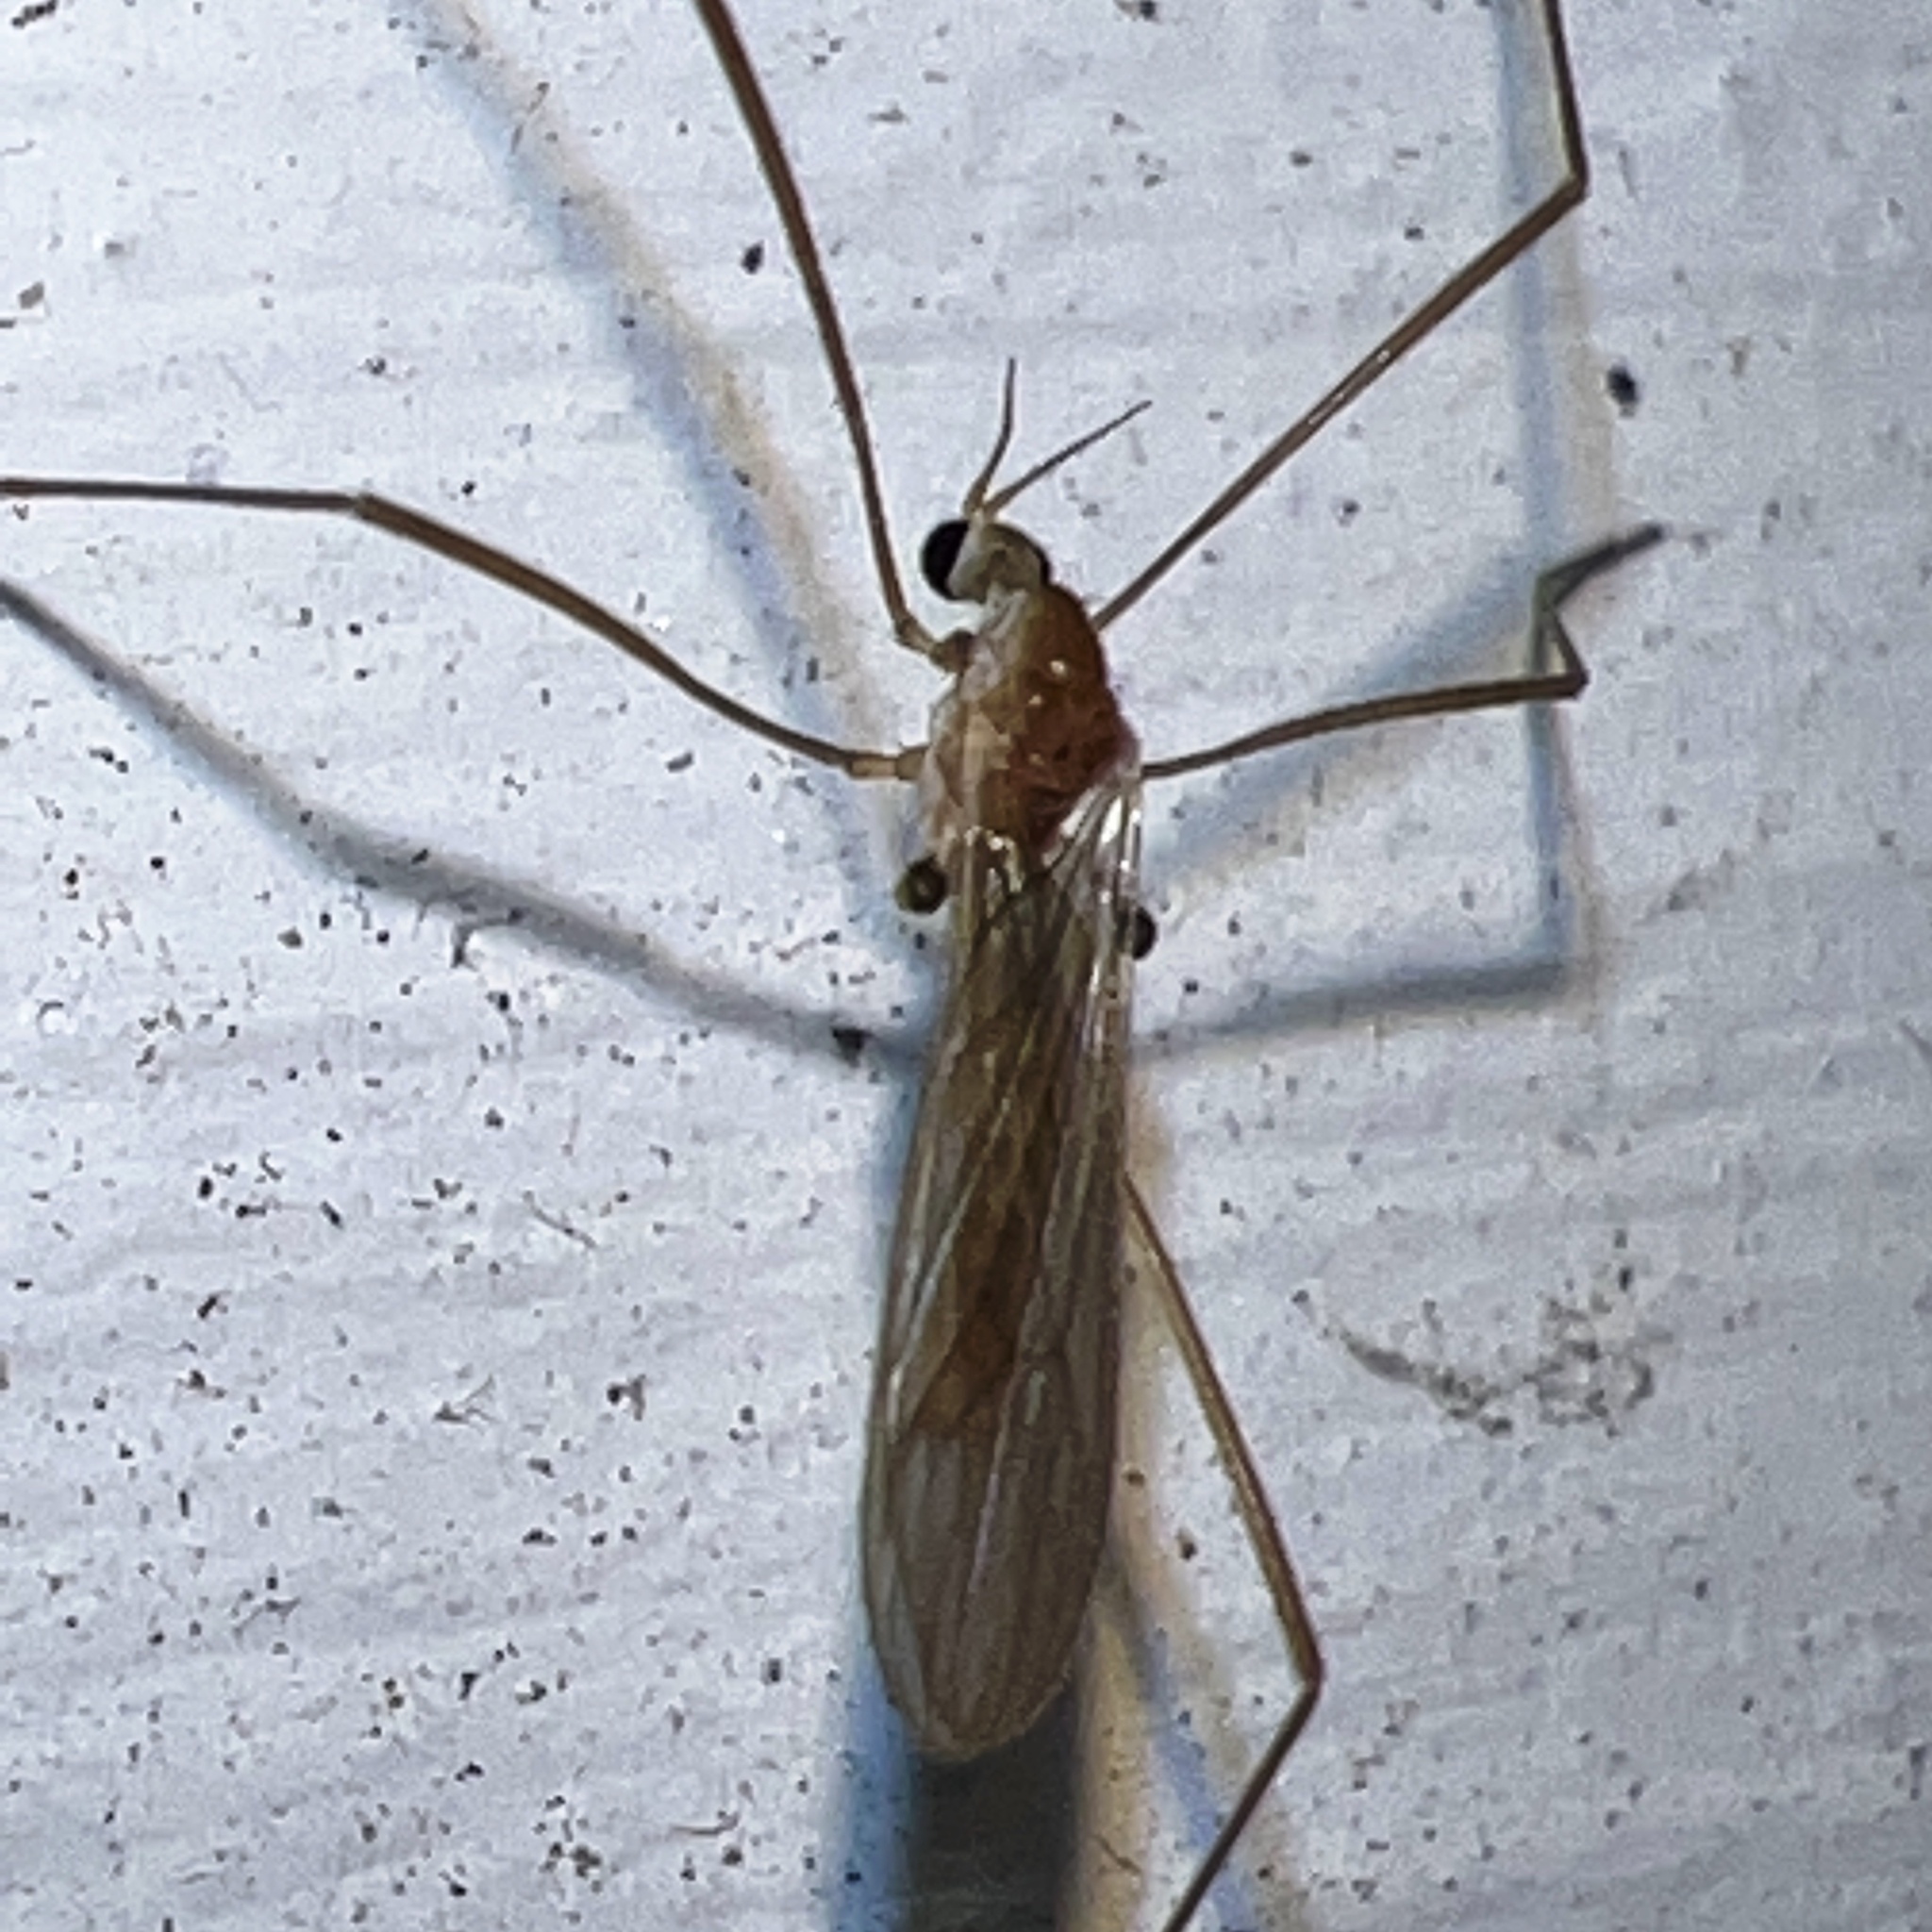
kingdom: Animalia
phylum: Arthropoda
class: Insecta
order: Diptera
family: Limoniidae
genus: Erioptera
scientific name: Erioptera septemtrionis
